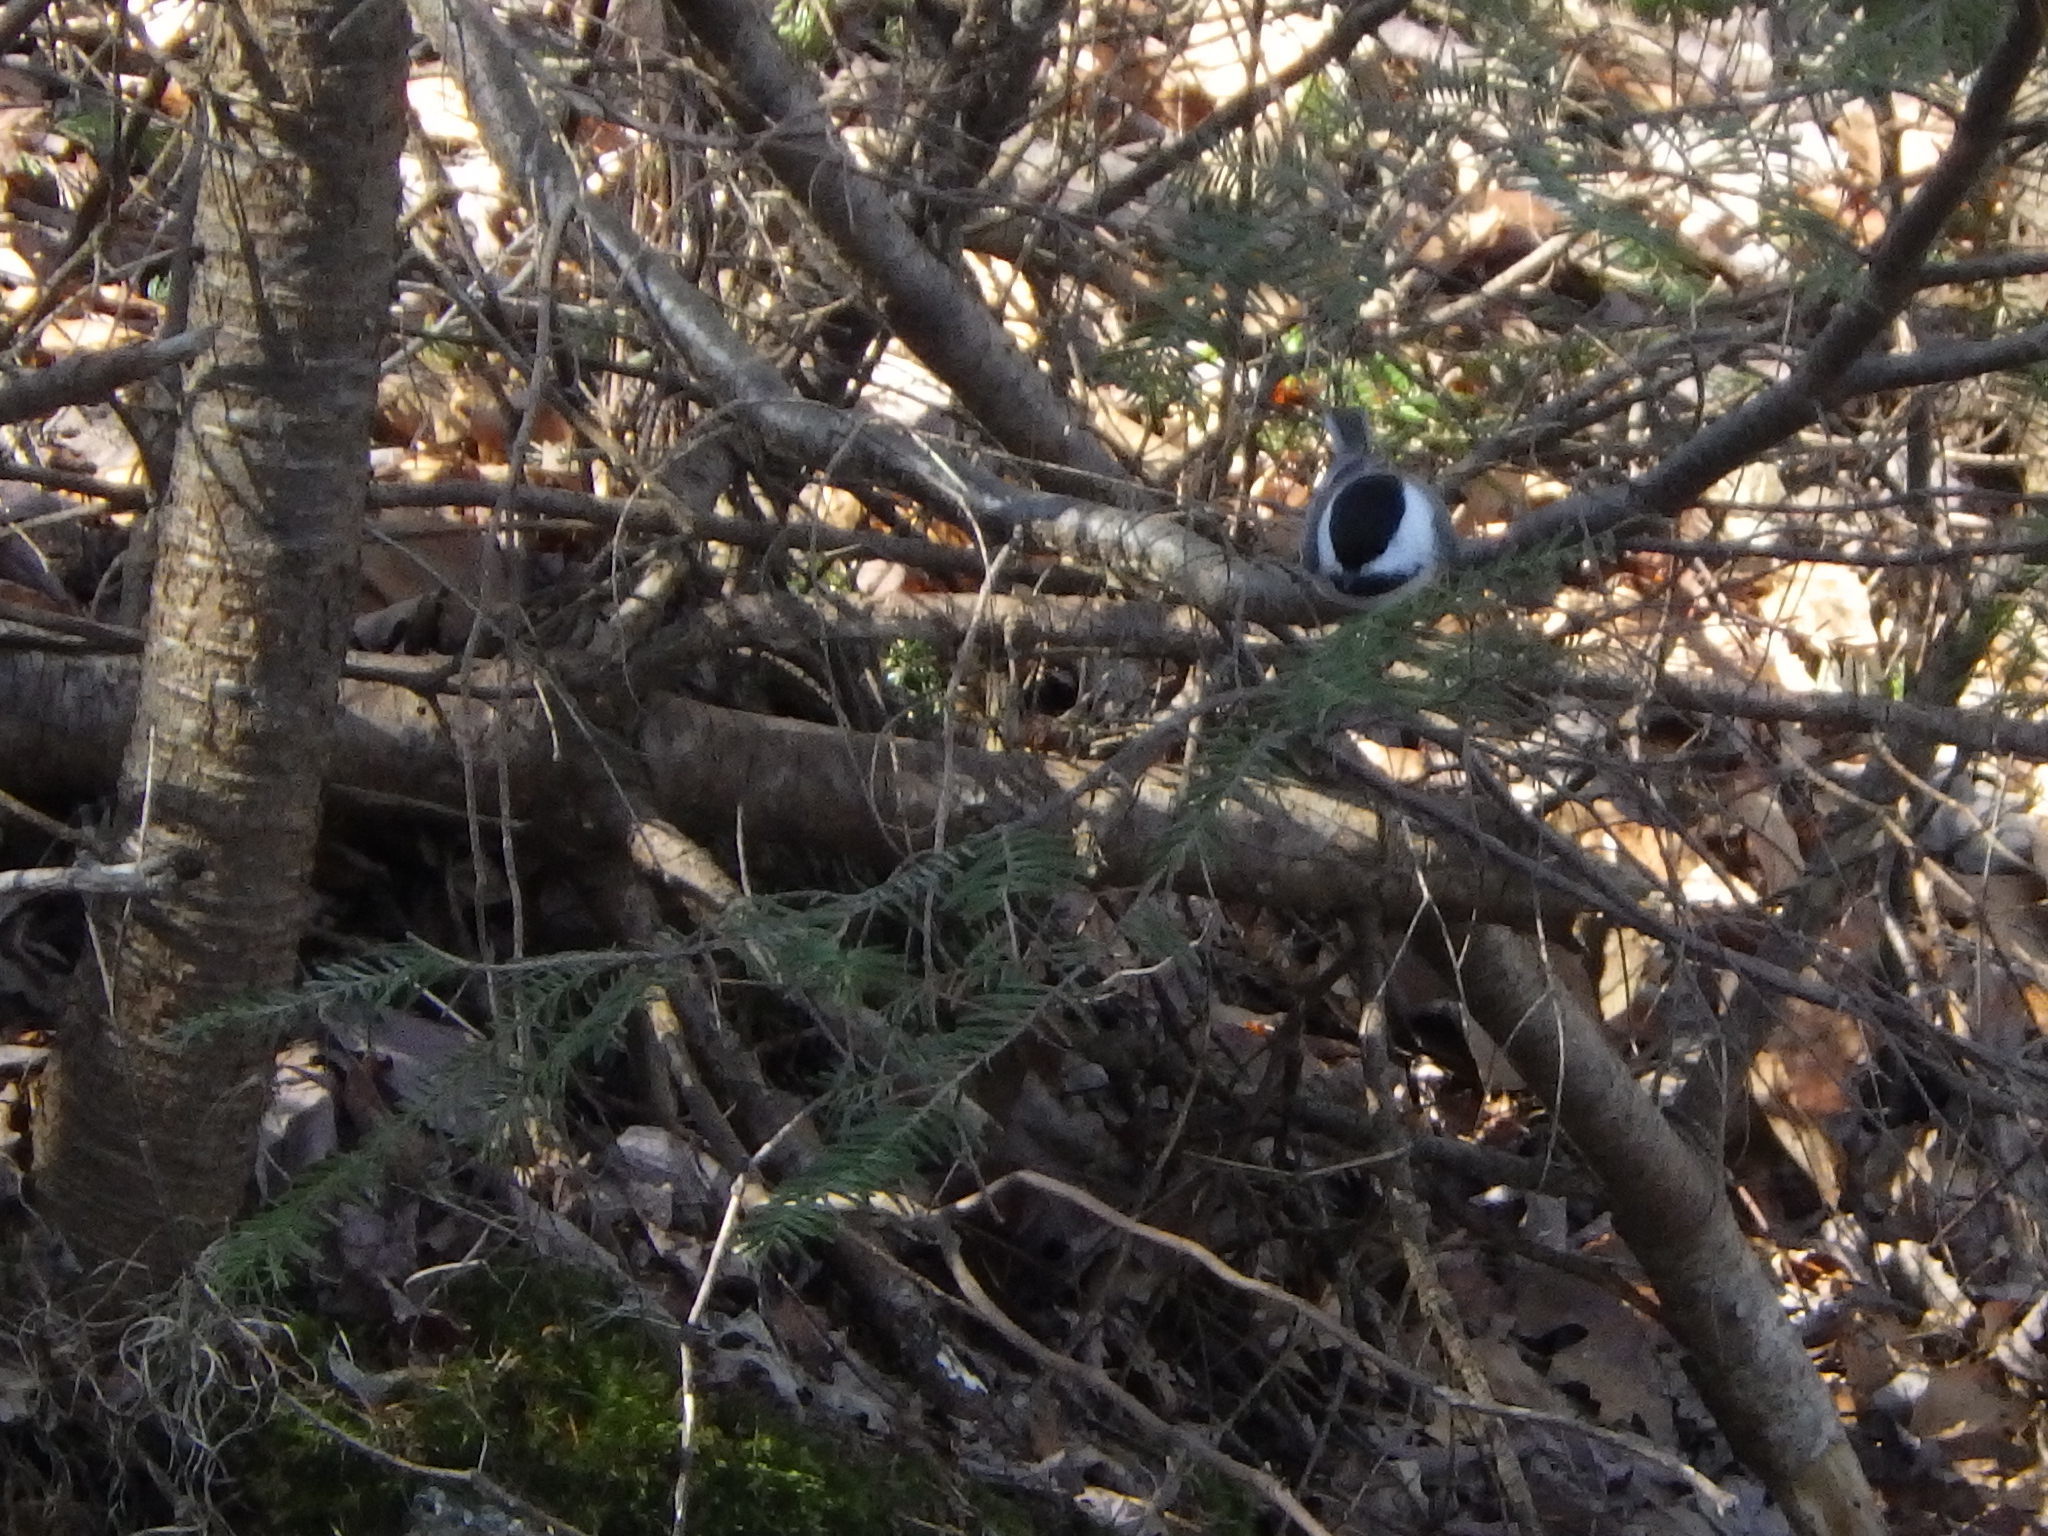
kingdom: Animalia
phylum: Chordata
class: Aves
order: Passeriformes
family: Paridae
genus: Poecile
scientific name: Poecile atricapillus
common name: Black-capped chickadee
